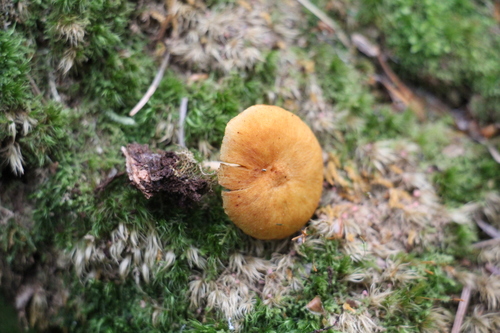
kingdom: Fungi
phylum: Basidiomycota
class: Agaricomycetes
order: Agaricales
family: Hymenogastraceae
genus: Gymnopilus
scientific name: Gymnopilus penetrans
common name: Common rustgill
